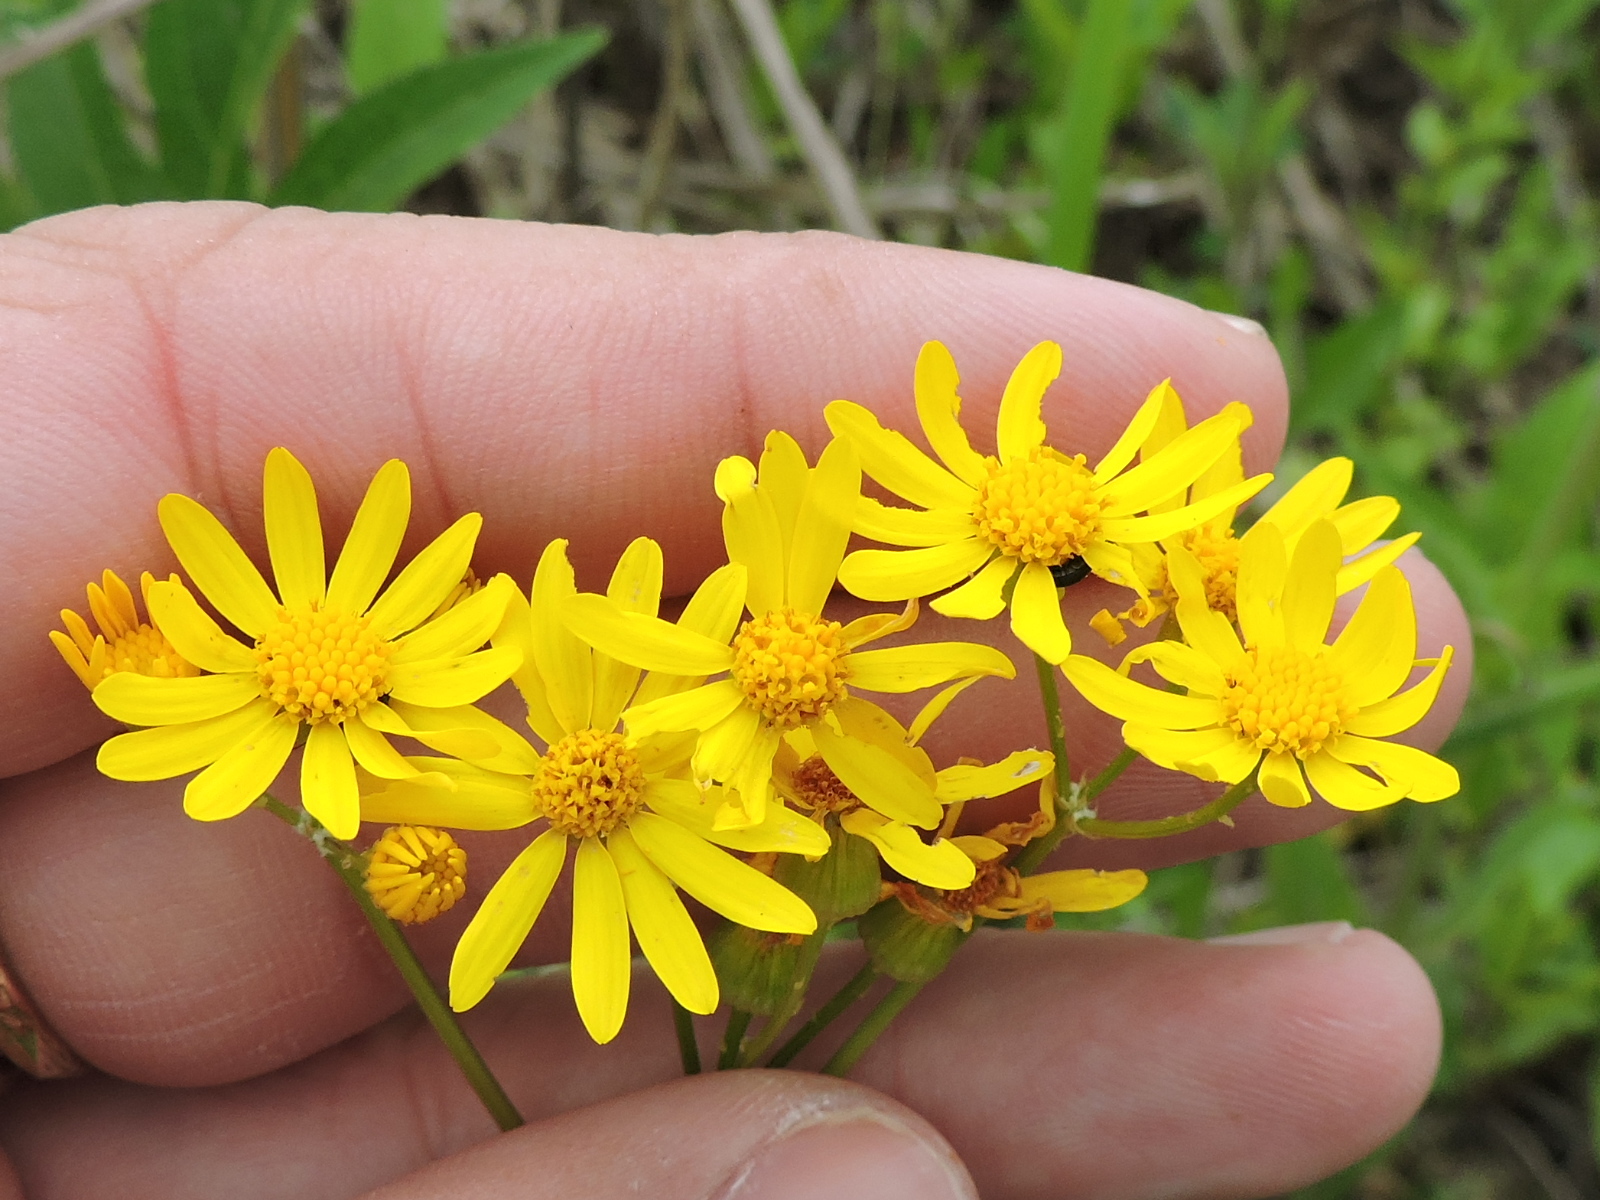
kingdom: Plantae
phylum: Tracheophyta
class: Magnoliopsida
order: Asterales
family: Asteraceae
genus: Packera
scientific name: Packera tampicana
